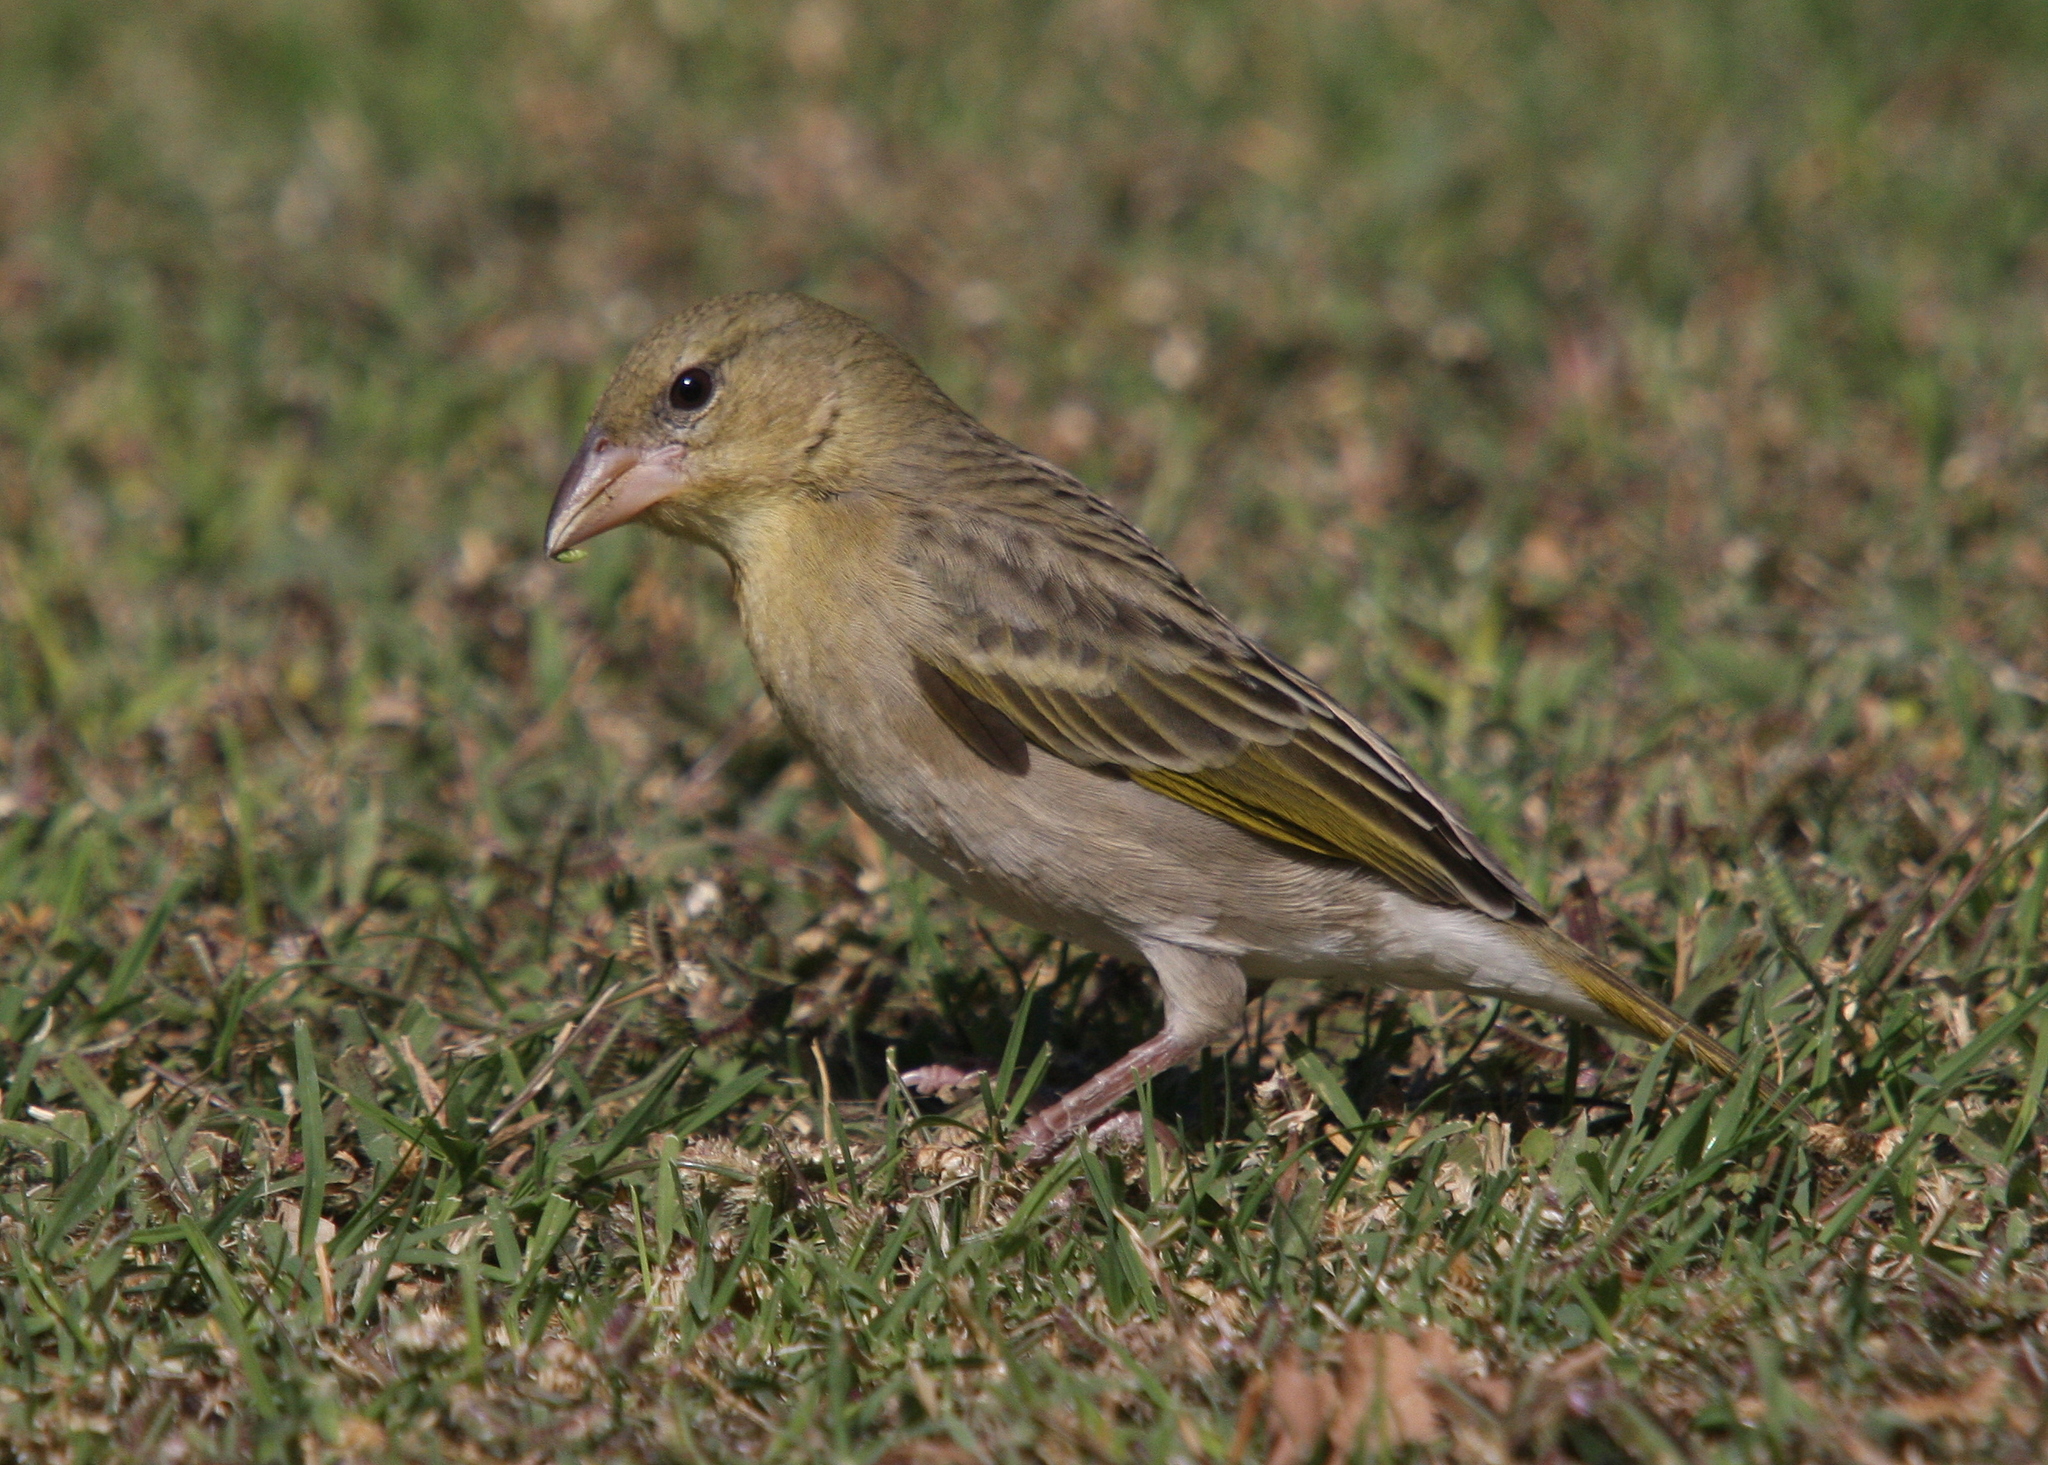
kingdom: Animalia
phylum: Chordata
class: Aves
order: Passeriformes
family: Ploceidae
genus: Ploceus
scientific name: Ploceus galbula
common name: Rüppell's weaver
